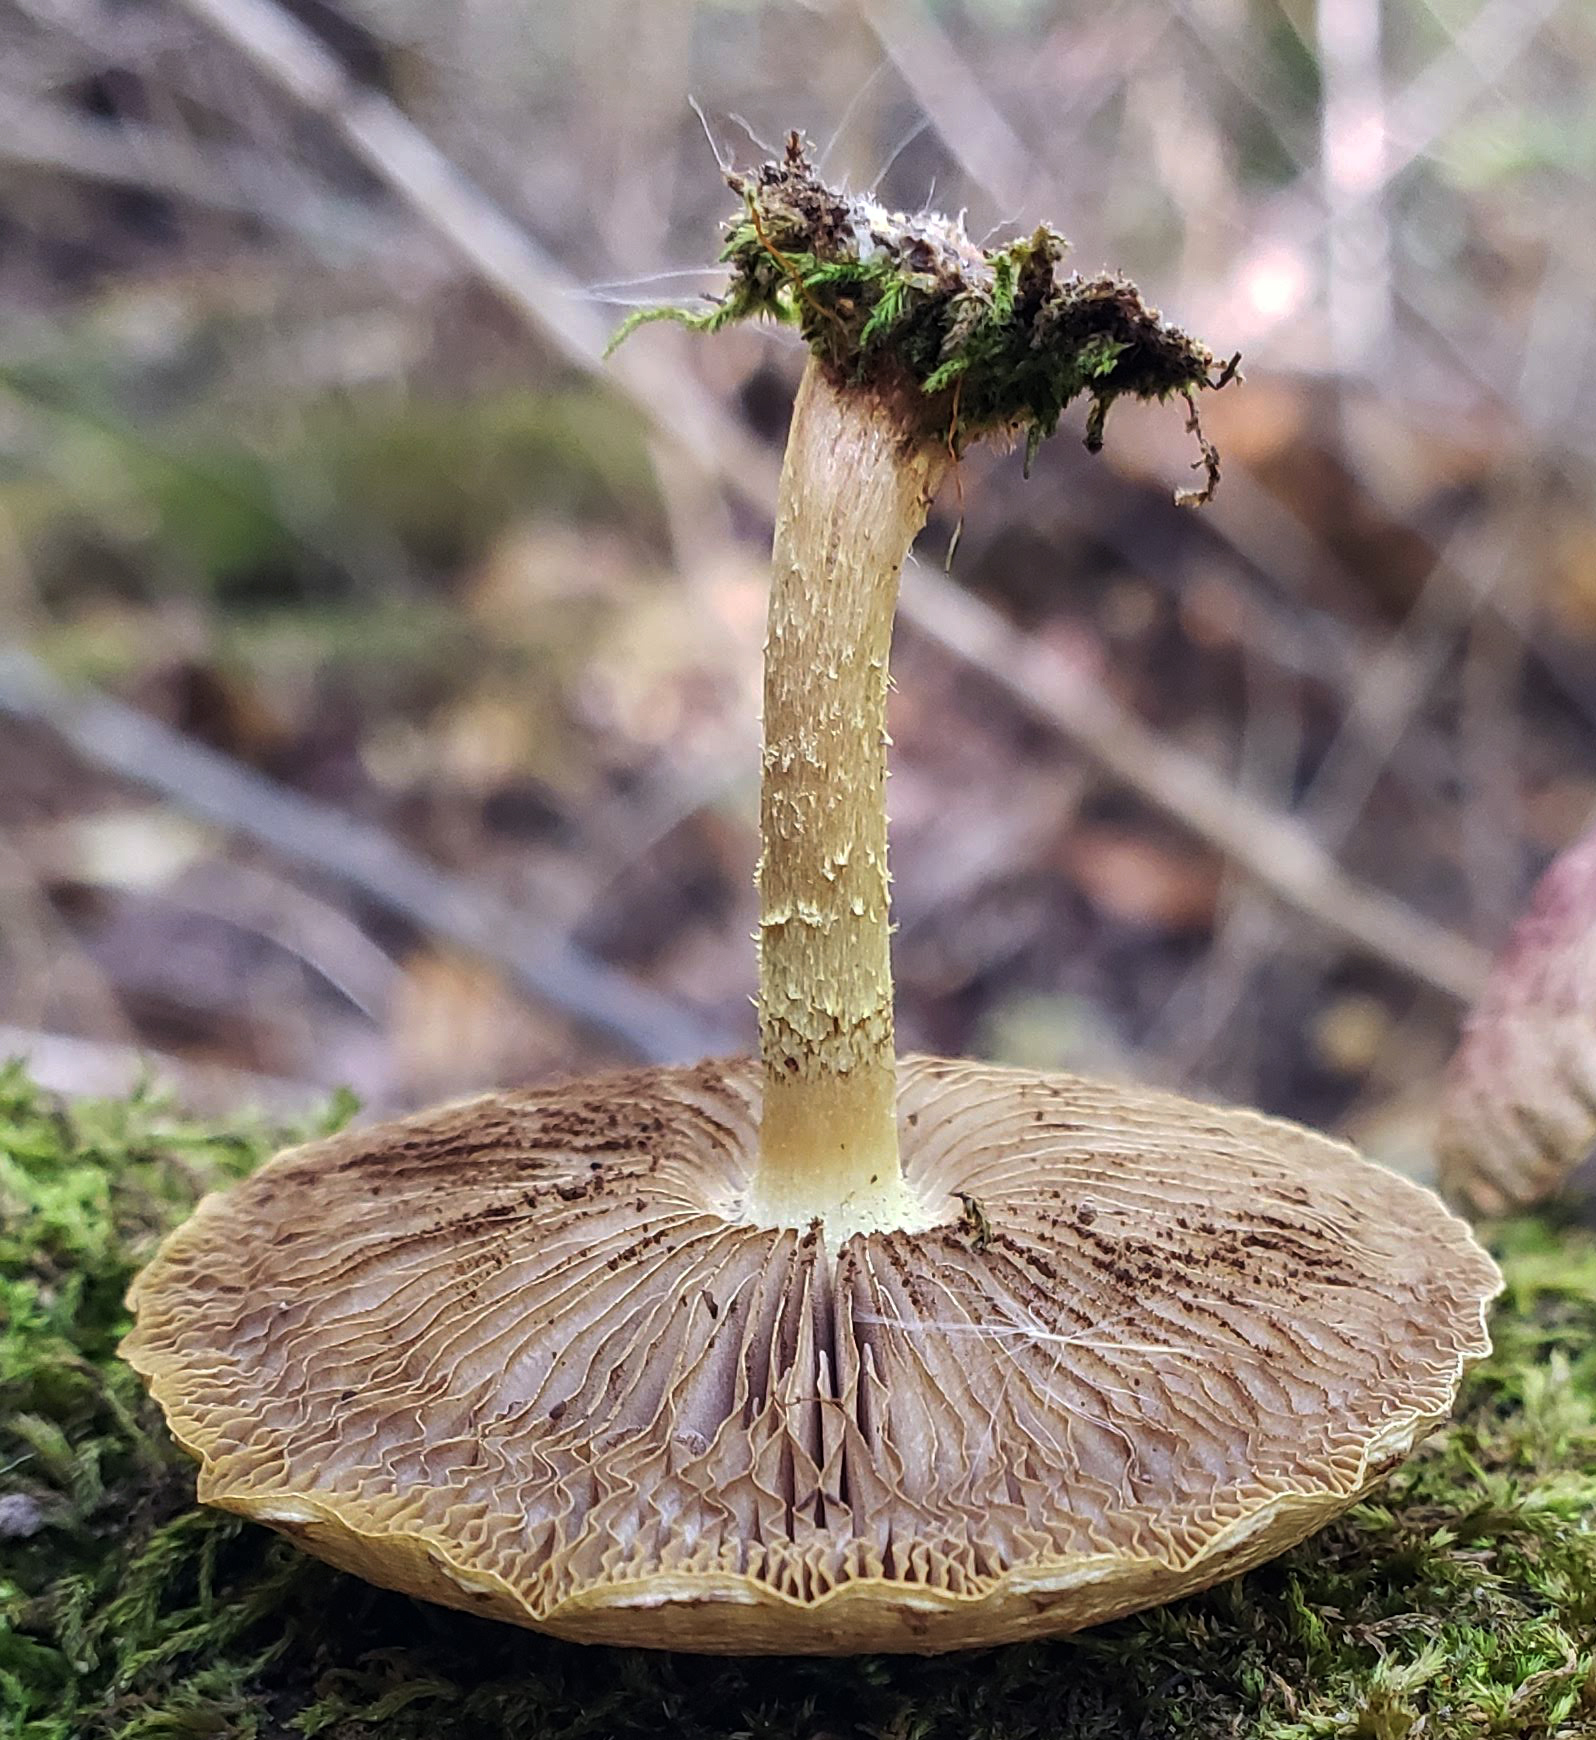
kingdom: Fungi
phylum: Basidiomycota
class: Agaricomycetes
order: Agaricales
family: Strophariaceae
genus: Pholiota
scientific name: Pholiota polychroa
